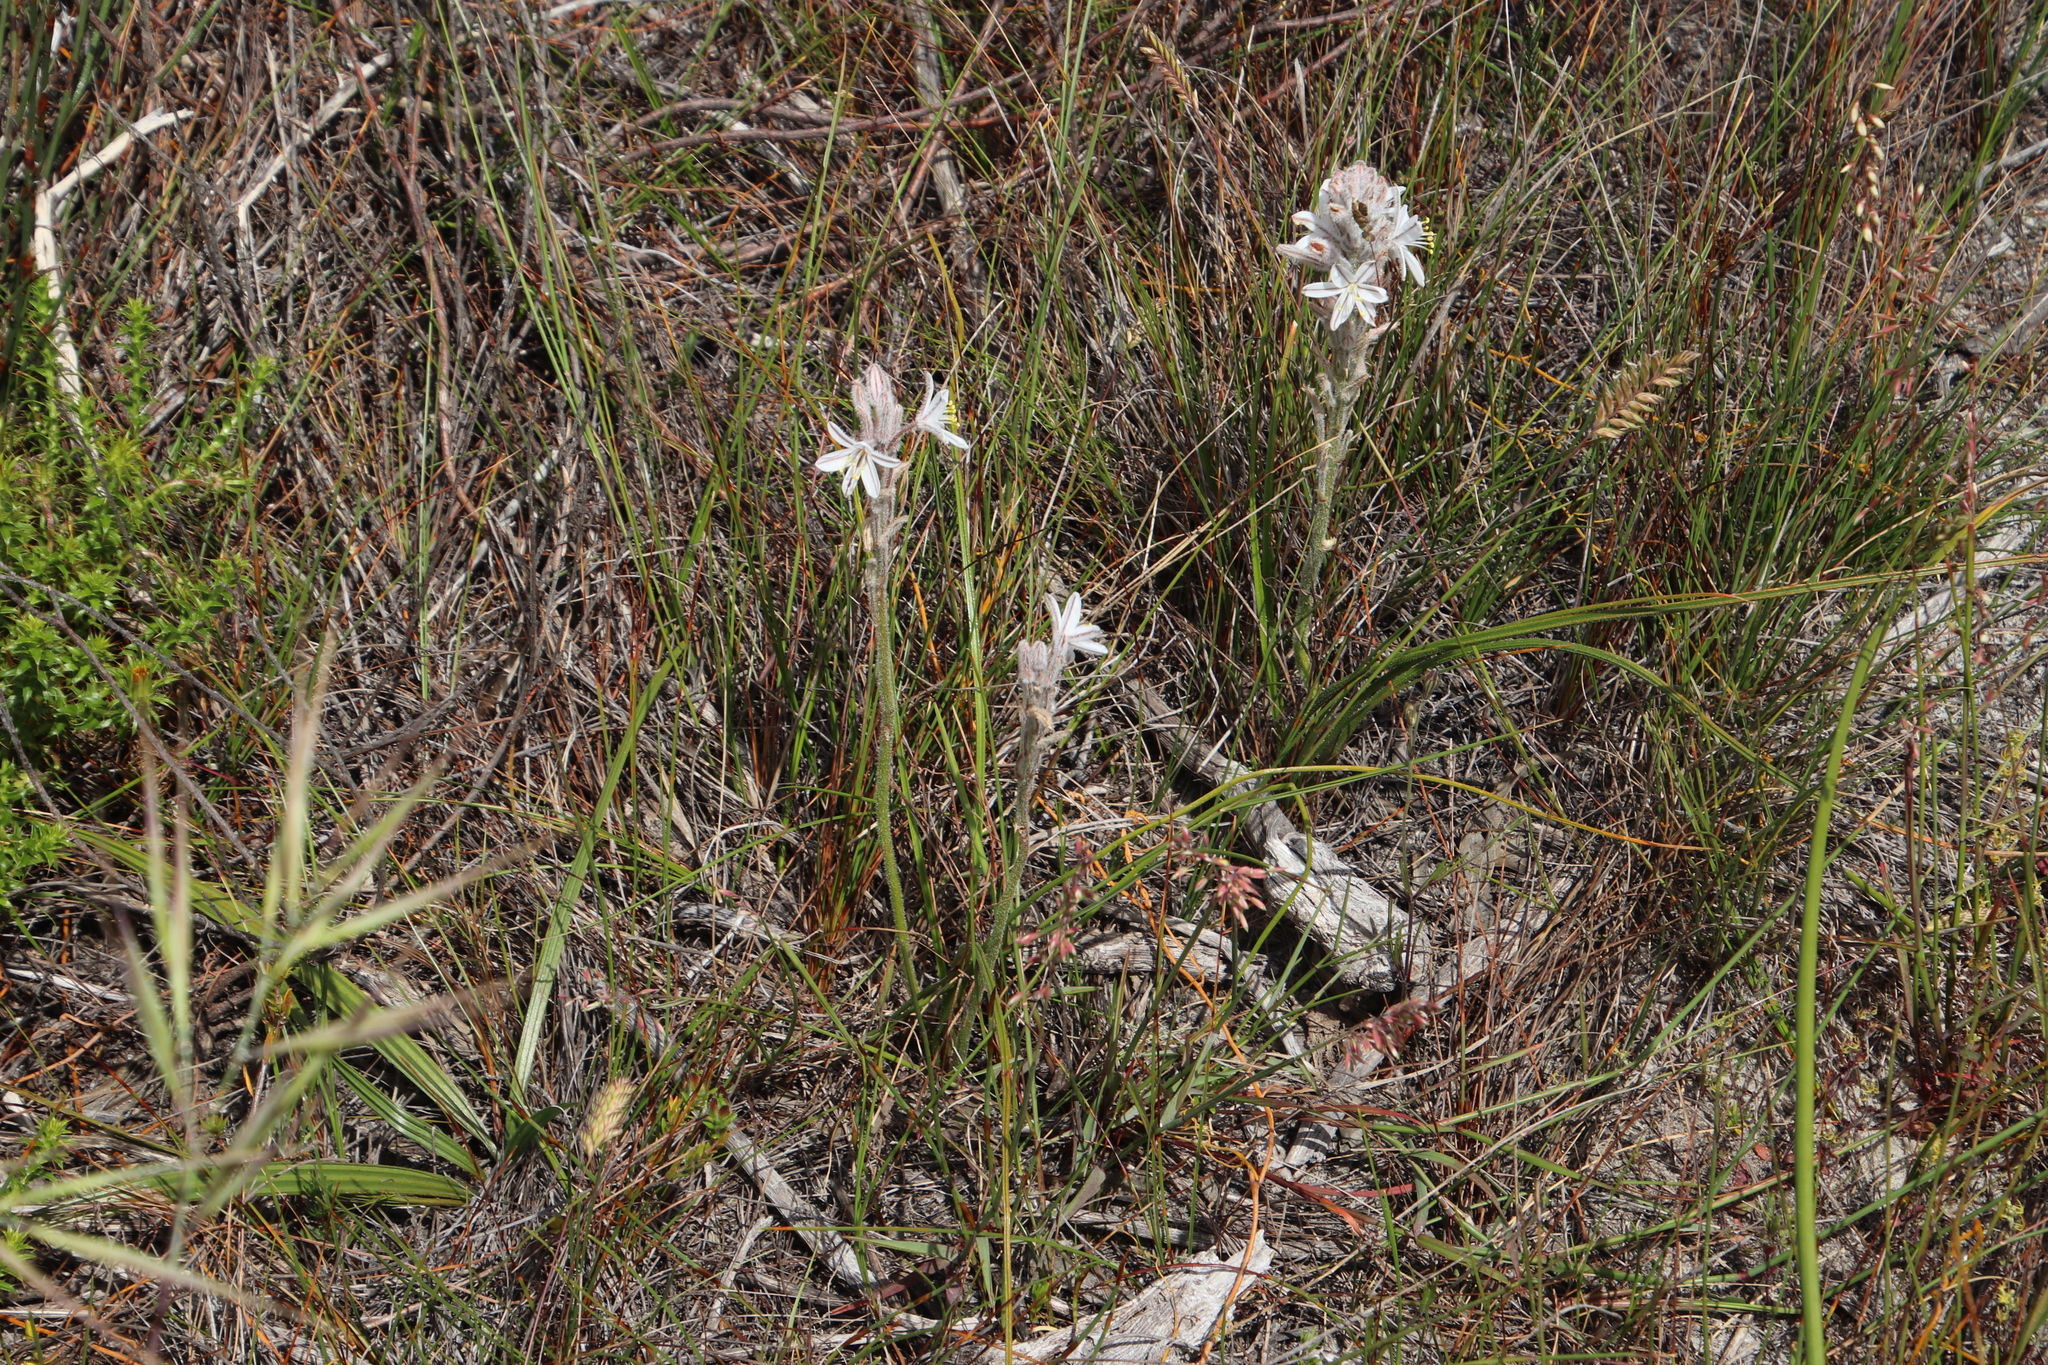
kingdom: Plantae
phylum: Tracheophyta
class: Liliopsida
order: Asparagales
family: Asphodelaceae
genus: Trachyandra
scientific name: Trachyandra hirsutiflora
